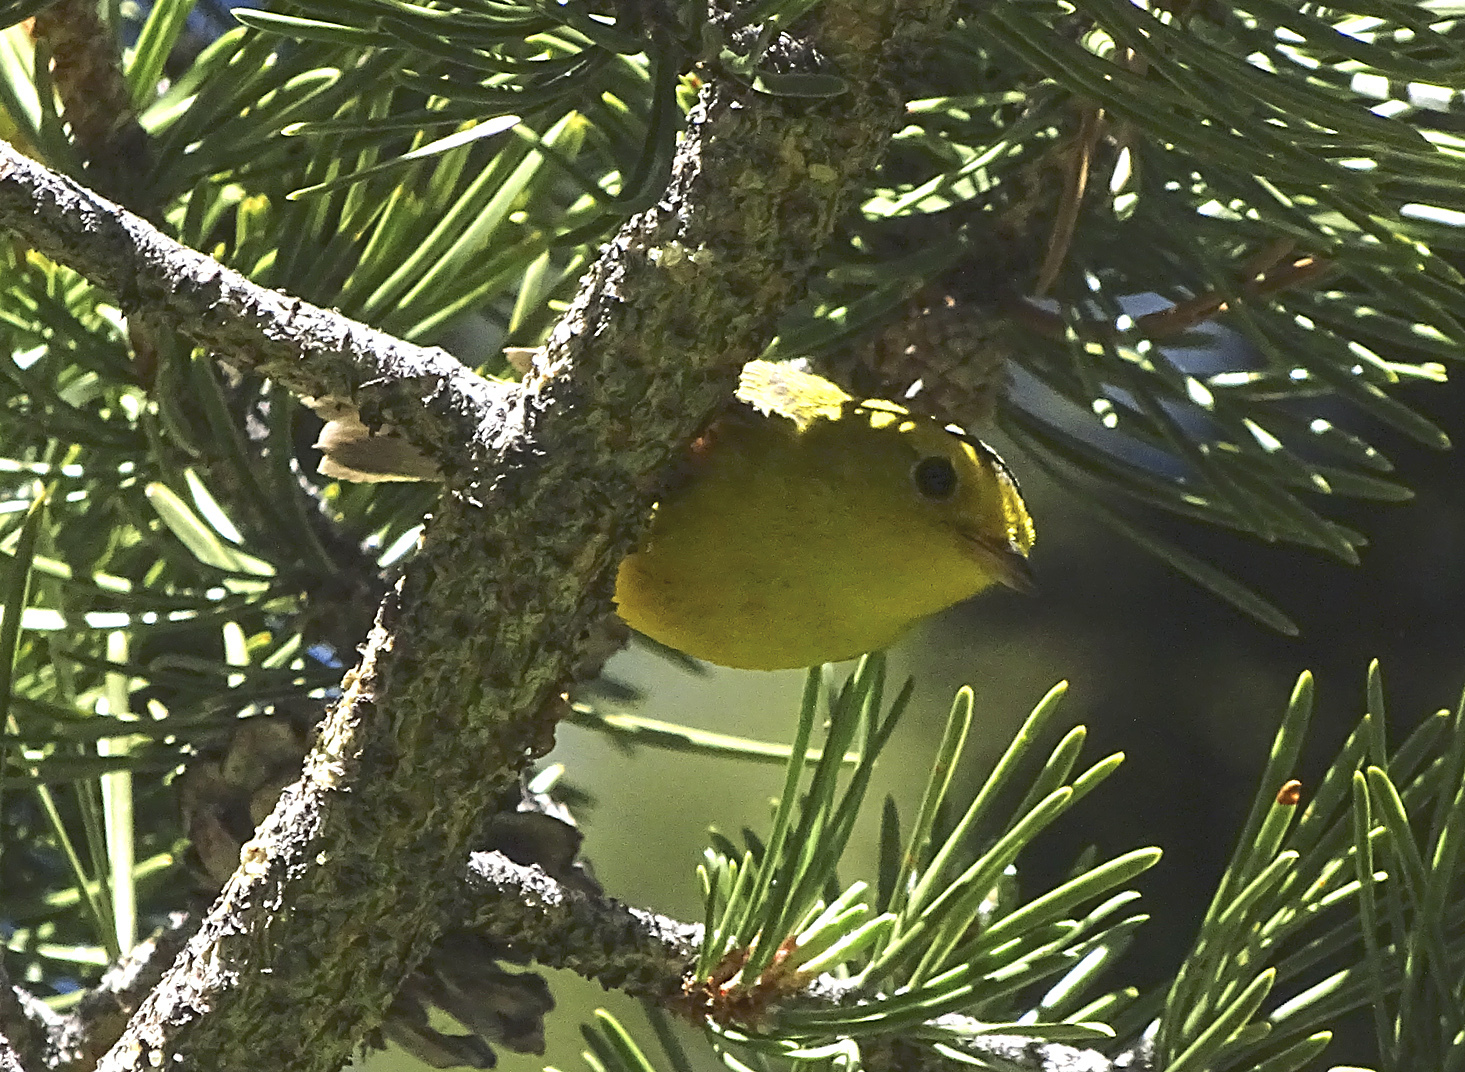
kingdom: Animalia
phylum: Chordata
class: Aves
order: Passeriformes
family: Parulidae
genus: Cardellina
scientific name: Cardellina pusilla
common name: Wilson's warbler
